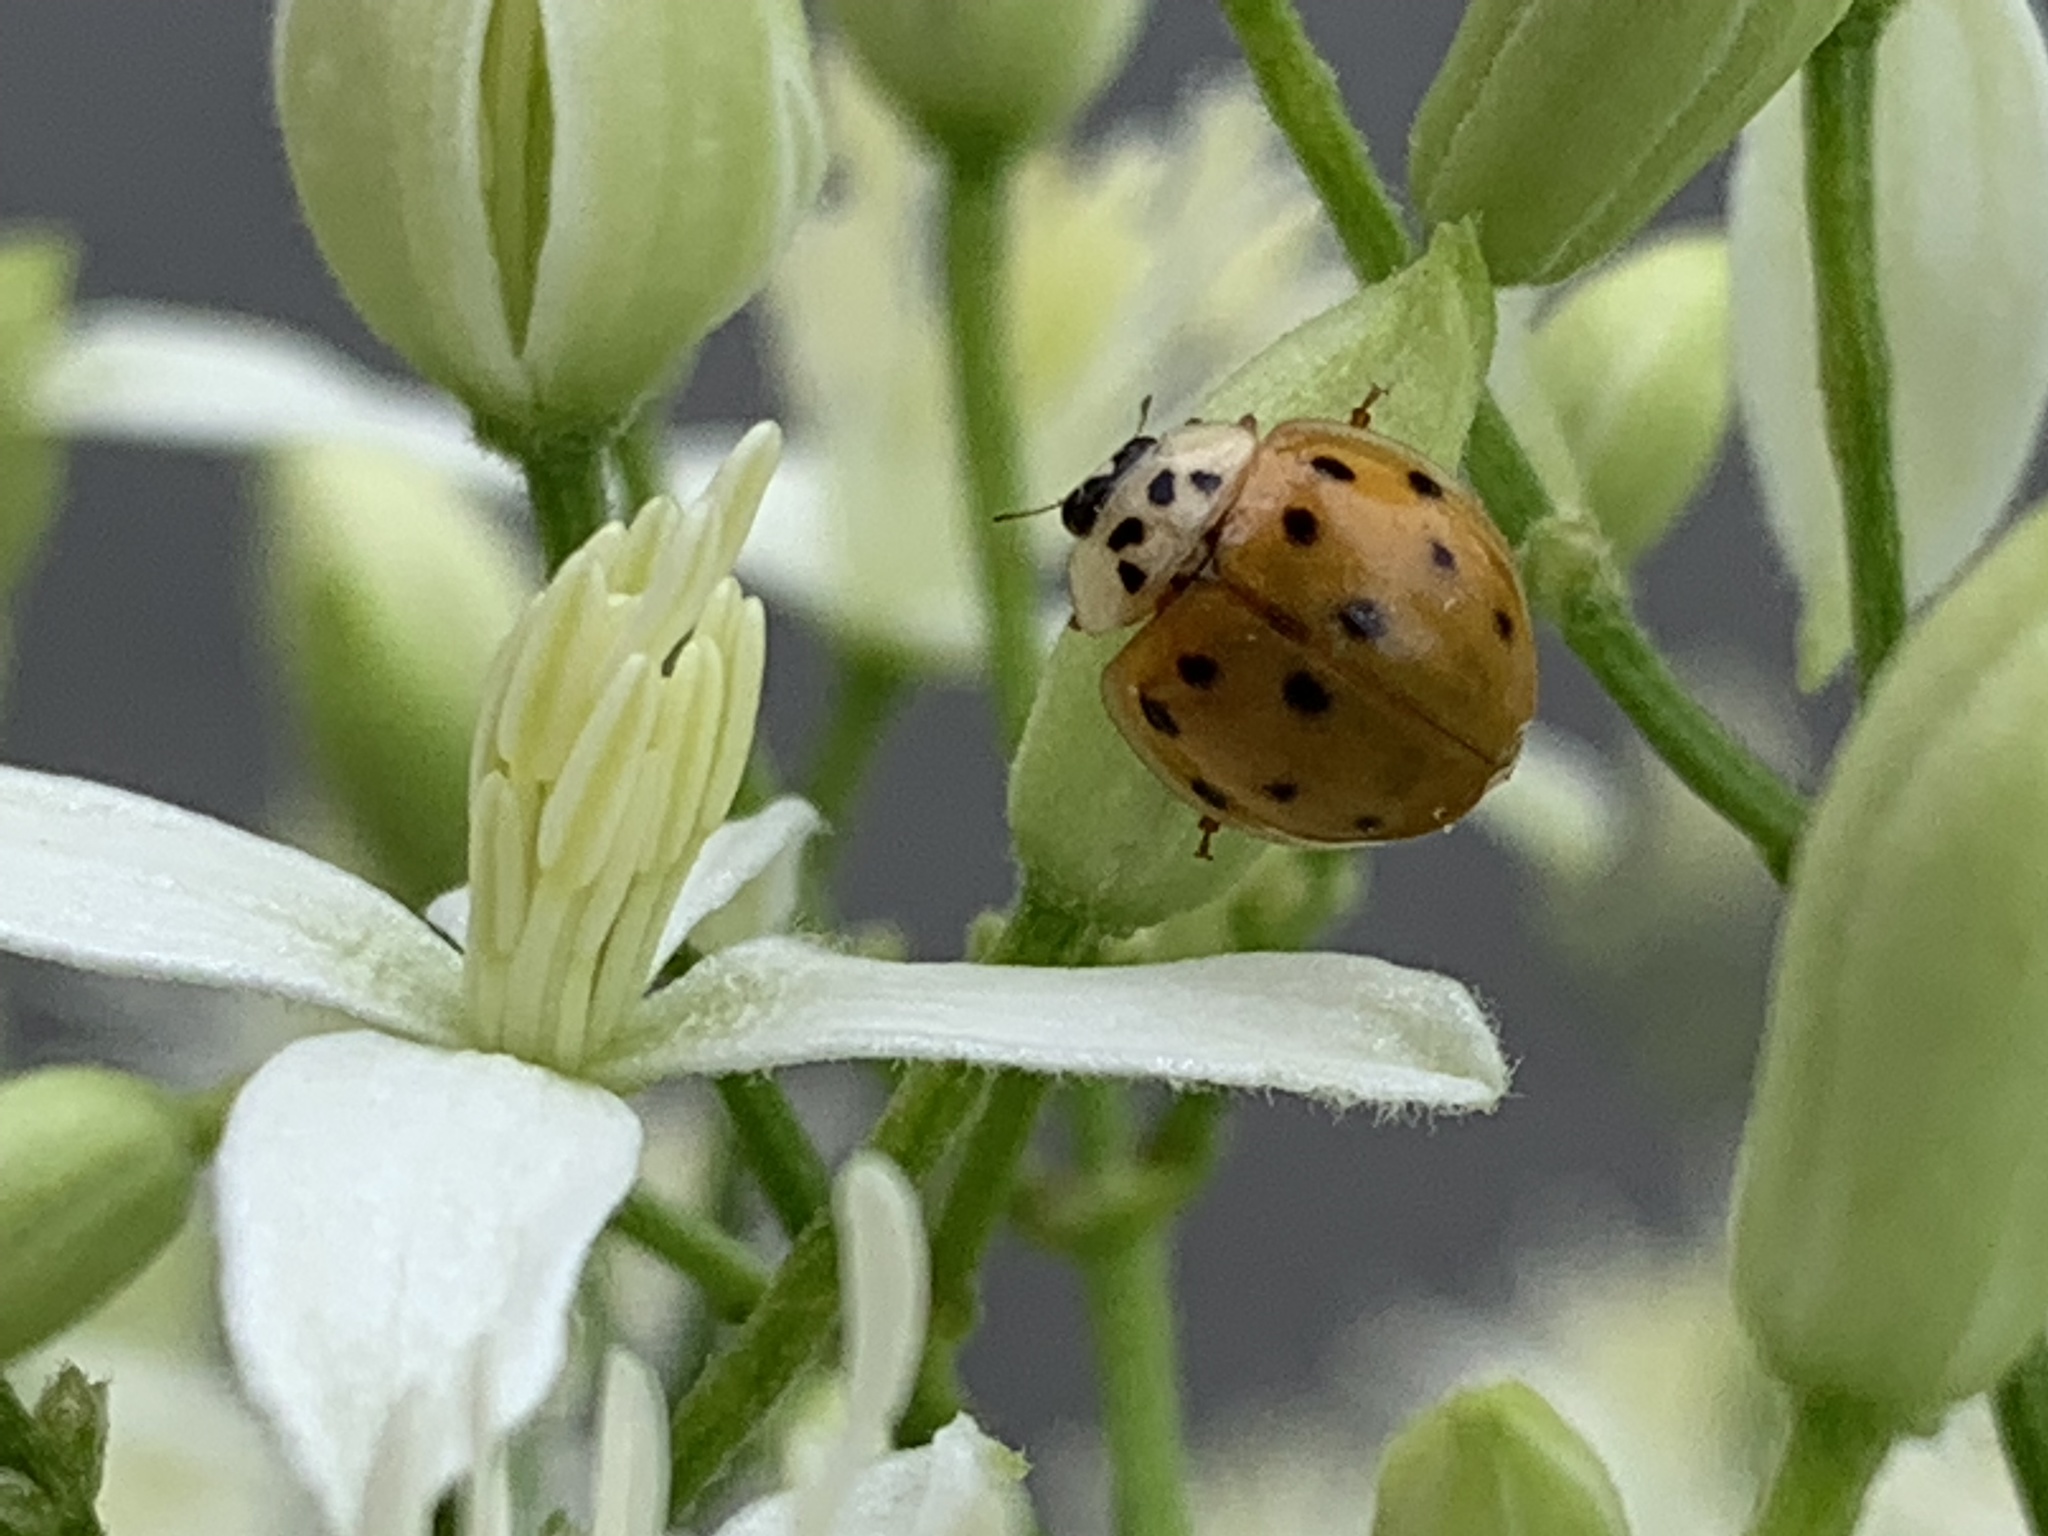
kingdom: Animalia
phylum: Arthropoda
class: Insecta
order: Coleoptera
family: Coccinellidae
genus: Harmonia
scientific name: Harmonia axyridis
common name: Harlequin ladybird
